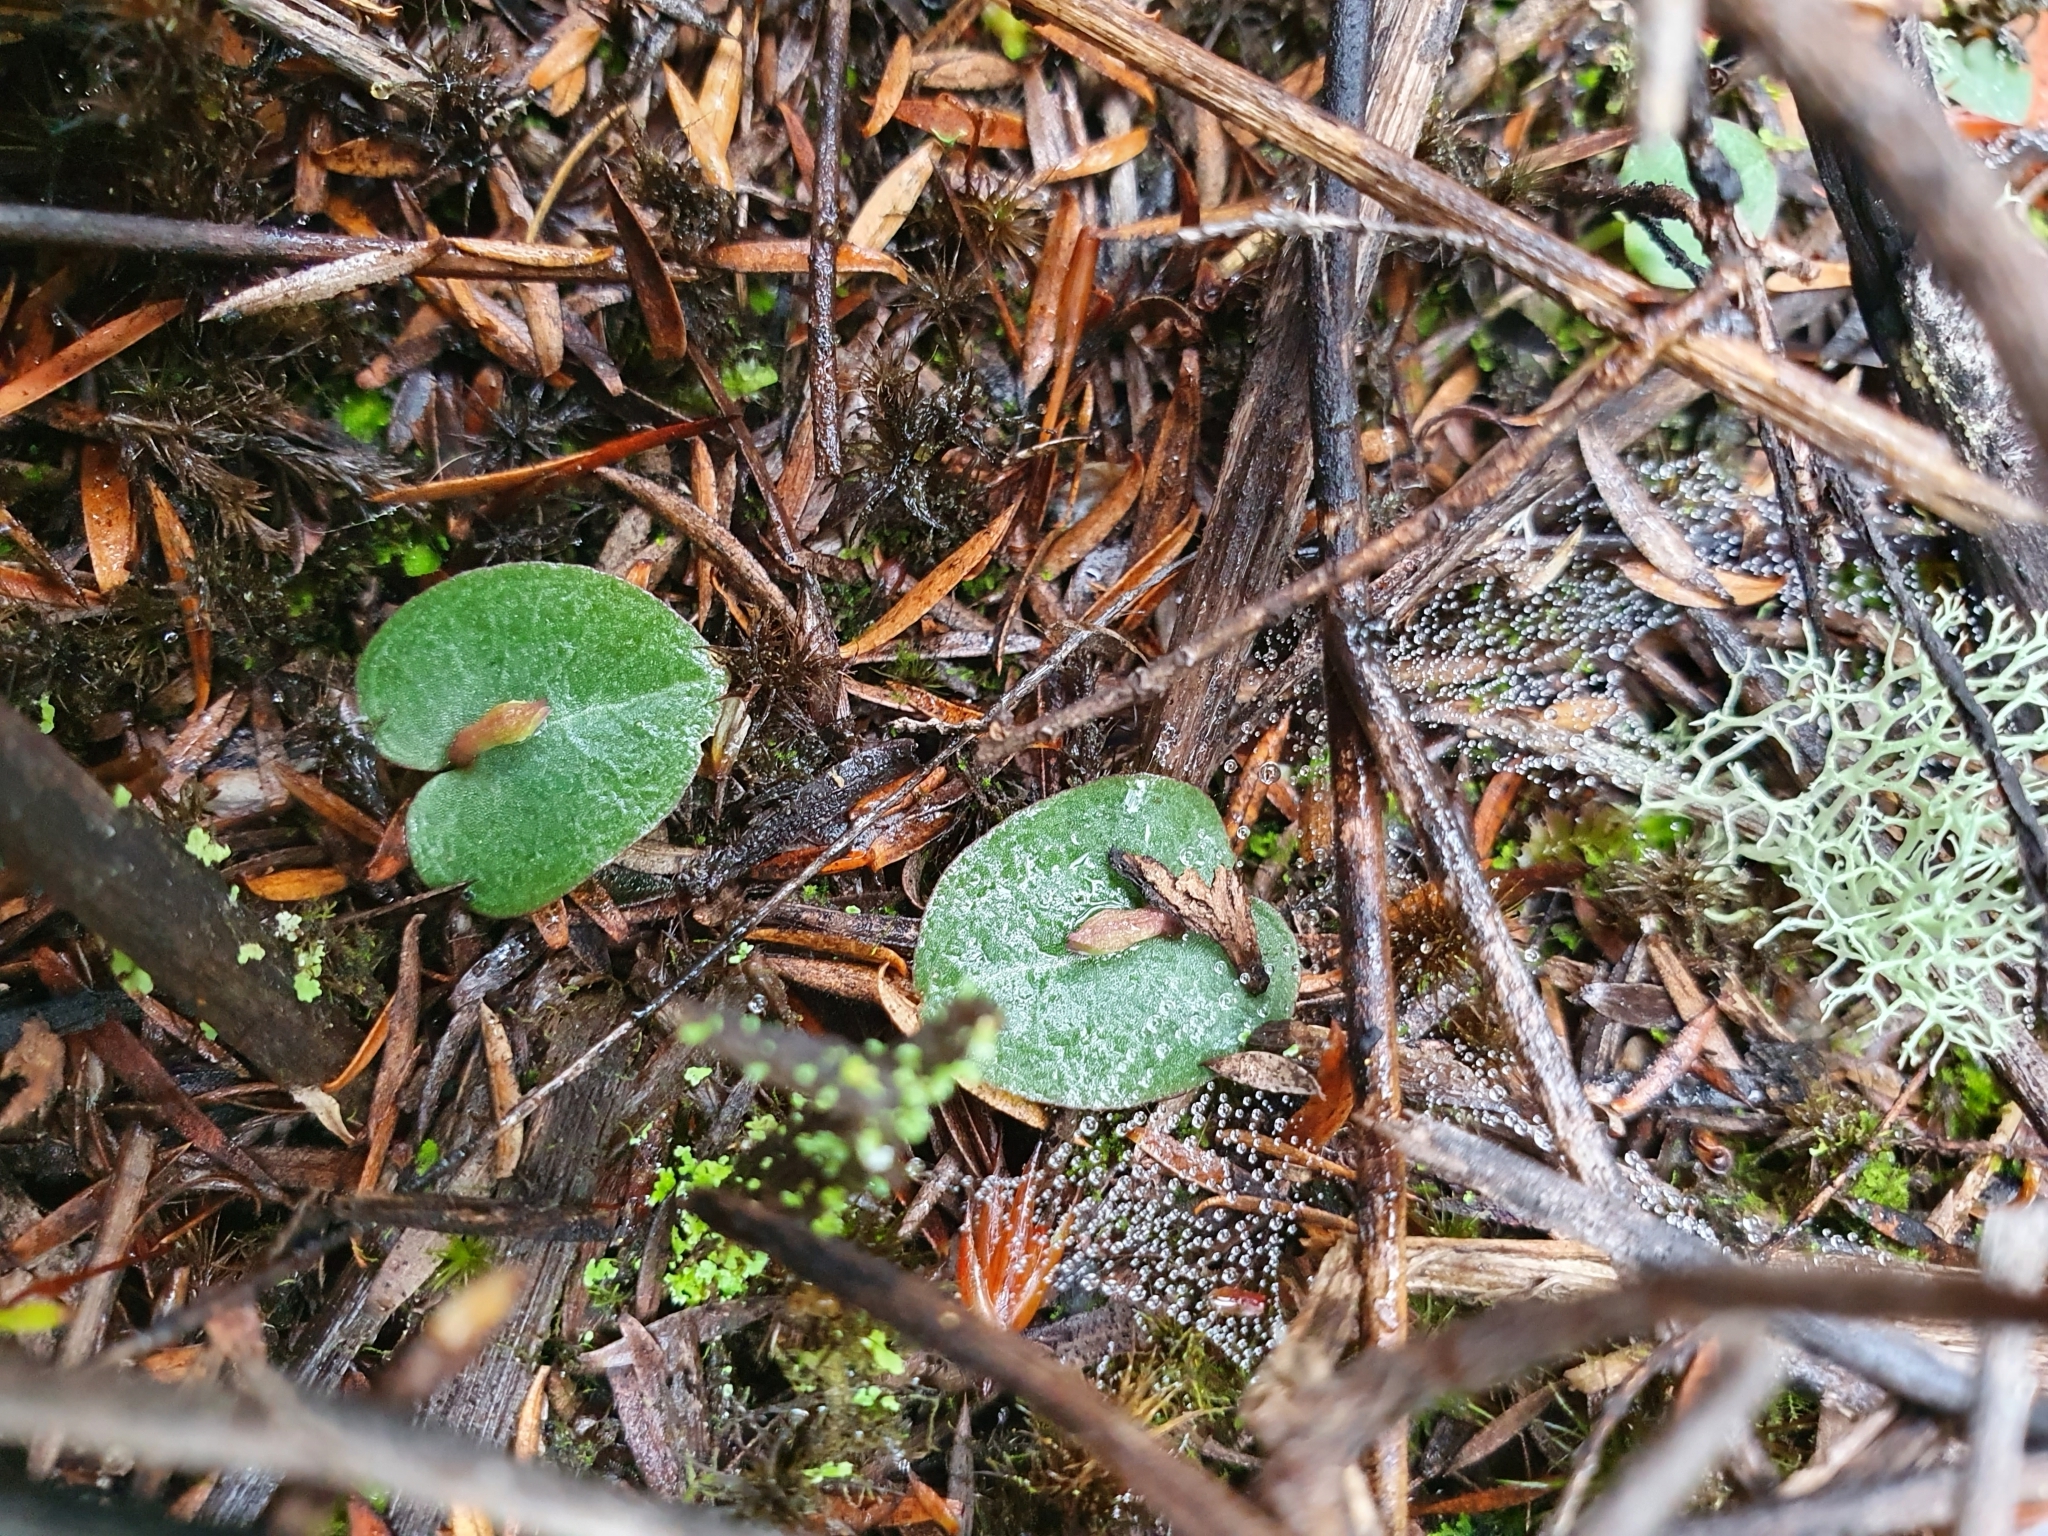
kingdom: Plantae
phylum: Tracheophyta
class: Liliopsida
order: Asparagales
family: Orchidaceae
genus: Corybas
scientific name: Corybas rotundifolius
